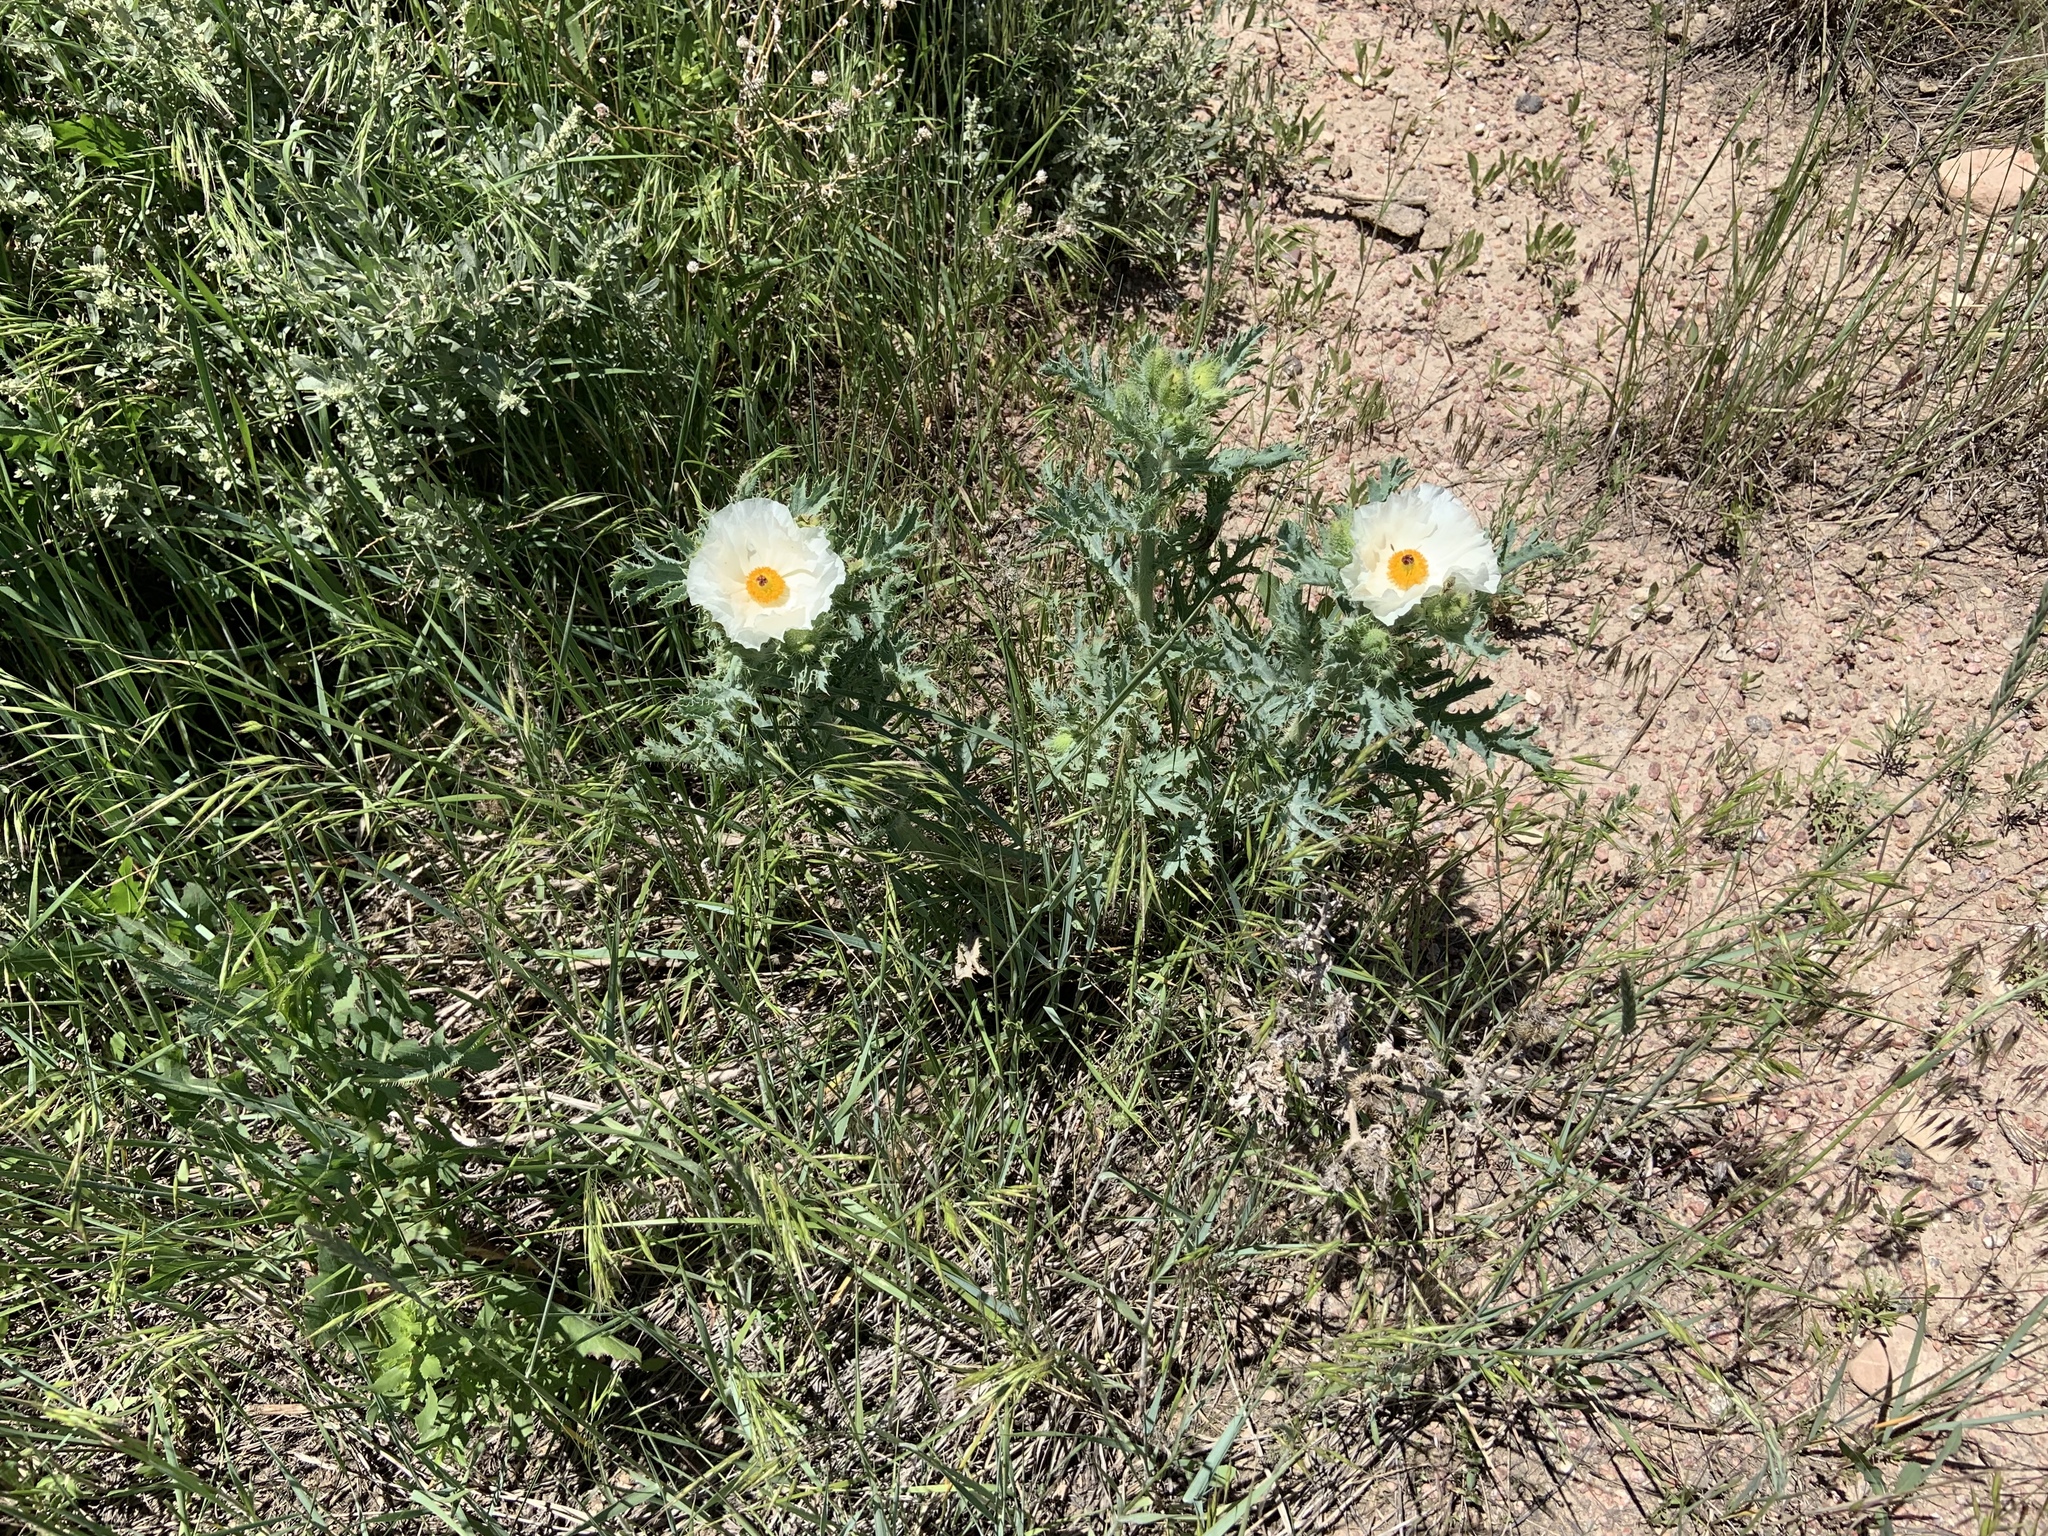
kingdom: Plantae
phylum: Tracheophyta
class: Magnoliopsida
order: Ranunculales
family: Papaveraceae
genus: Argemone
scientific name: Argemone hispida
